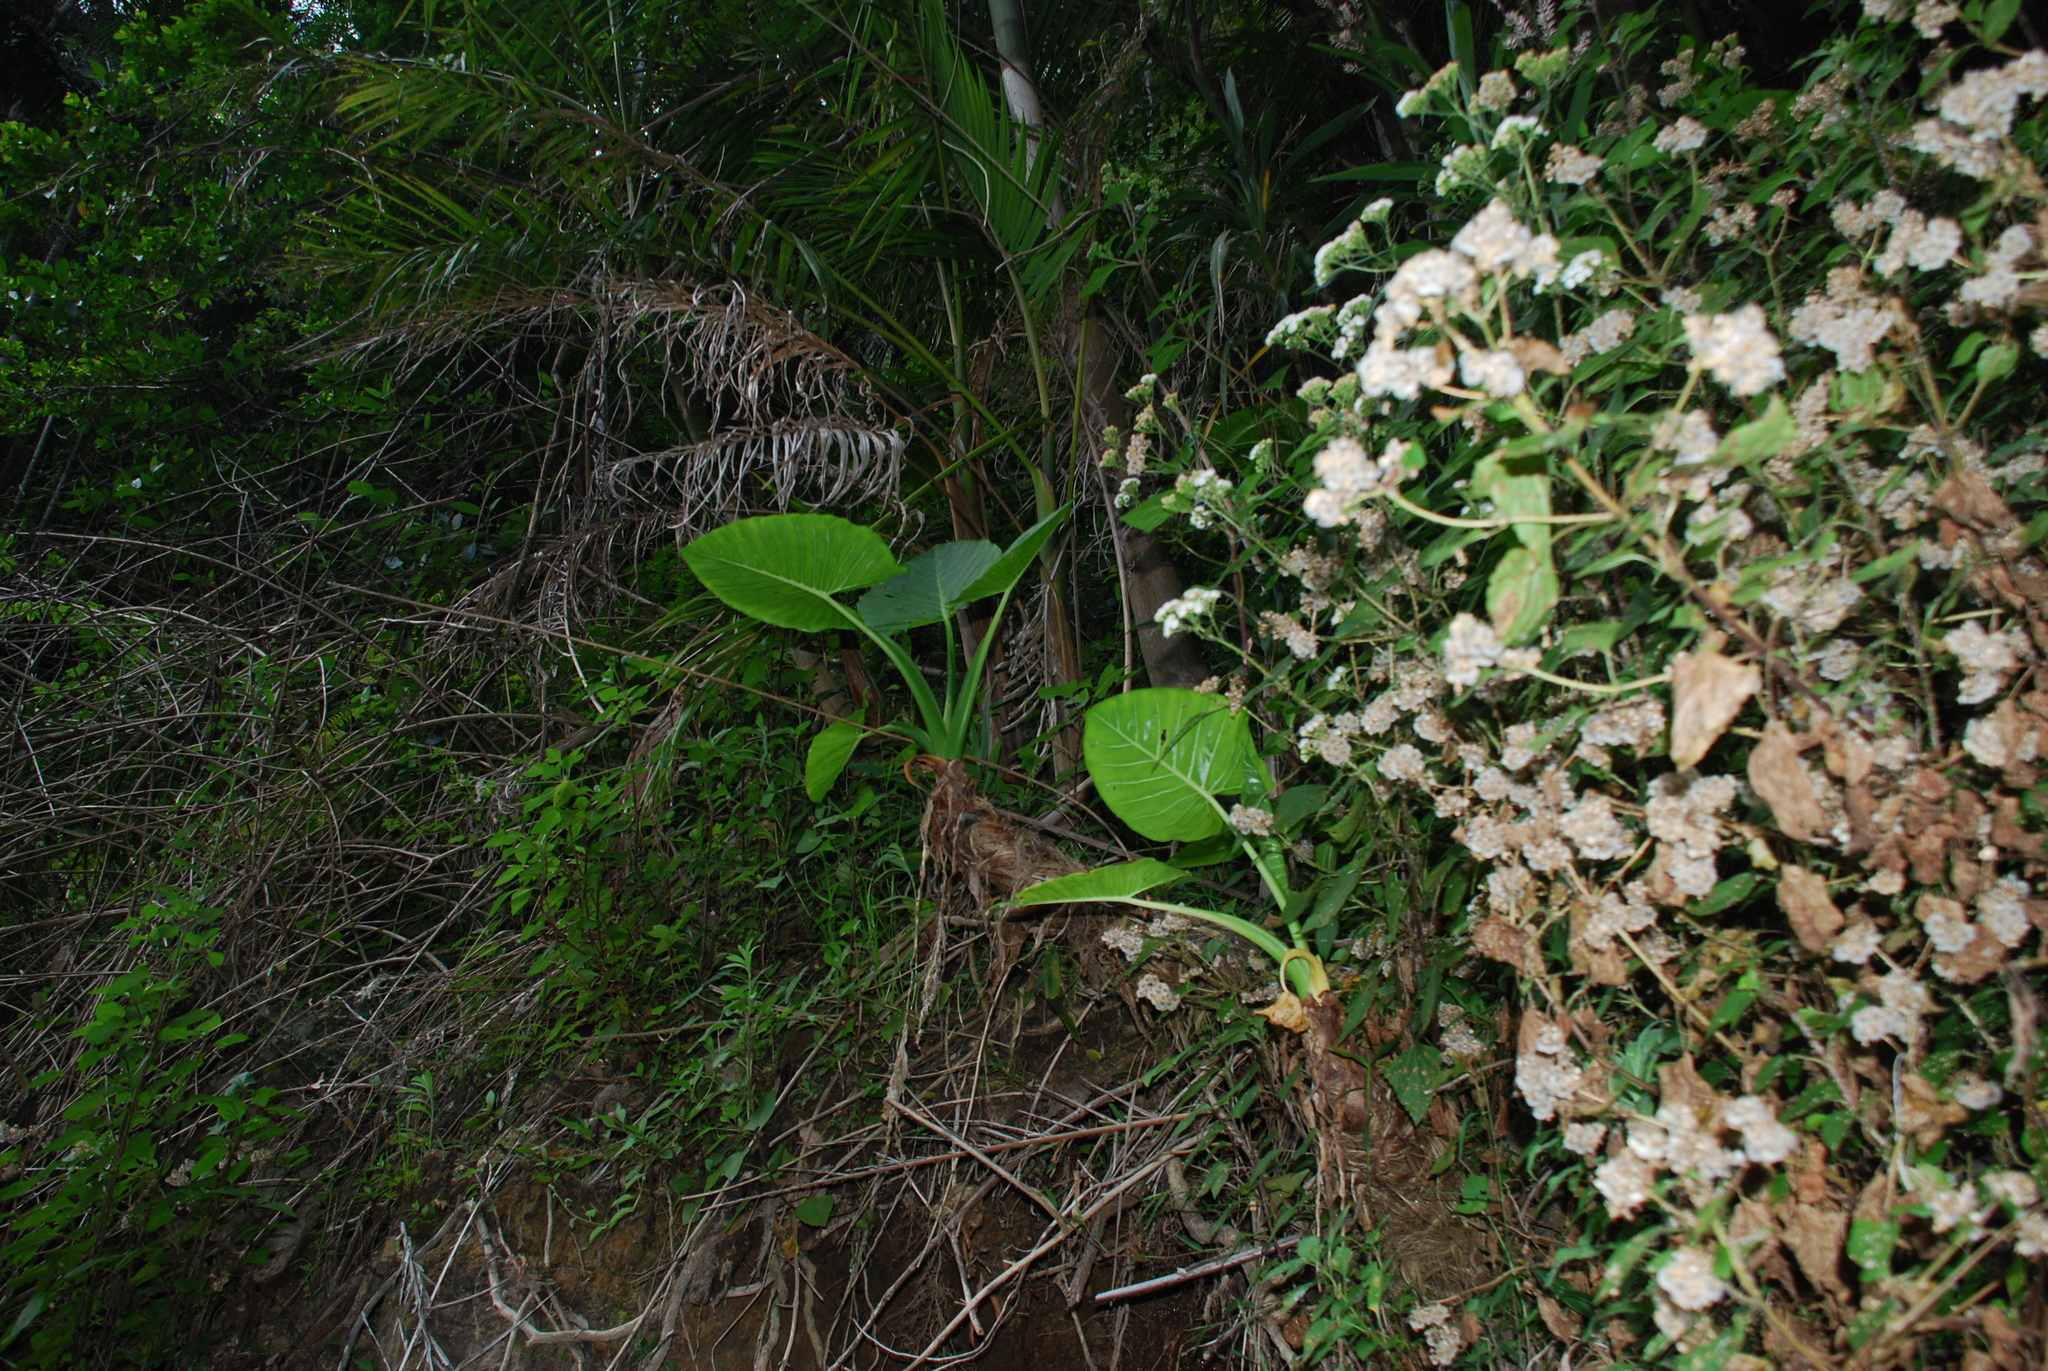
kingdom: Plantae
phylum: Tracheophyta
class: Liliopsida
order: Alismatales
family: Araceae
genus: Alocasia
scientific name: Alocasia brisbanensis
